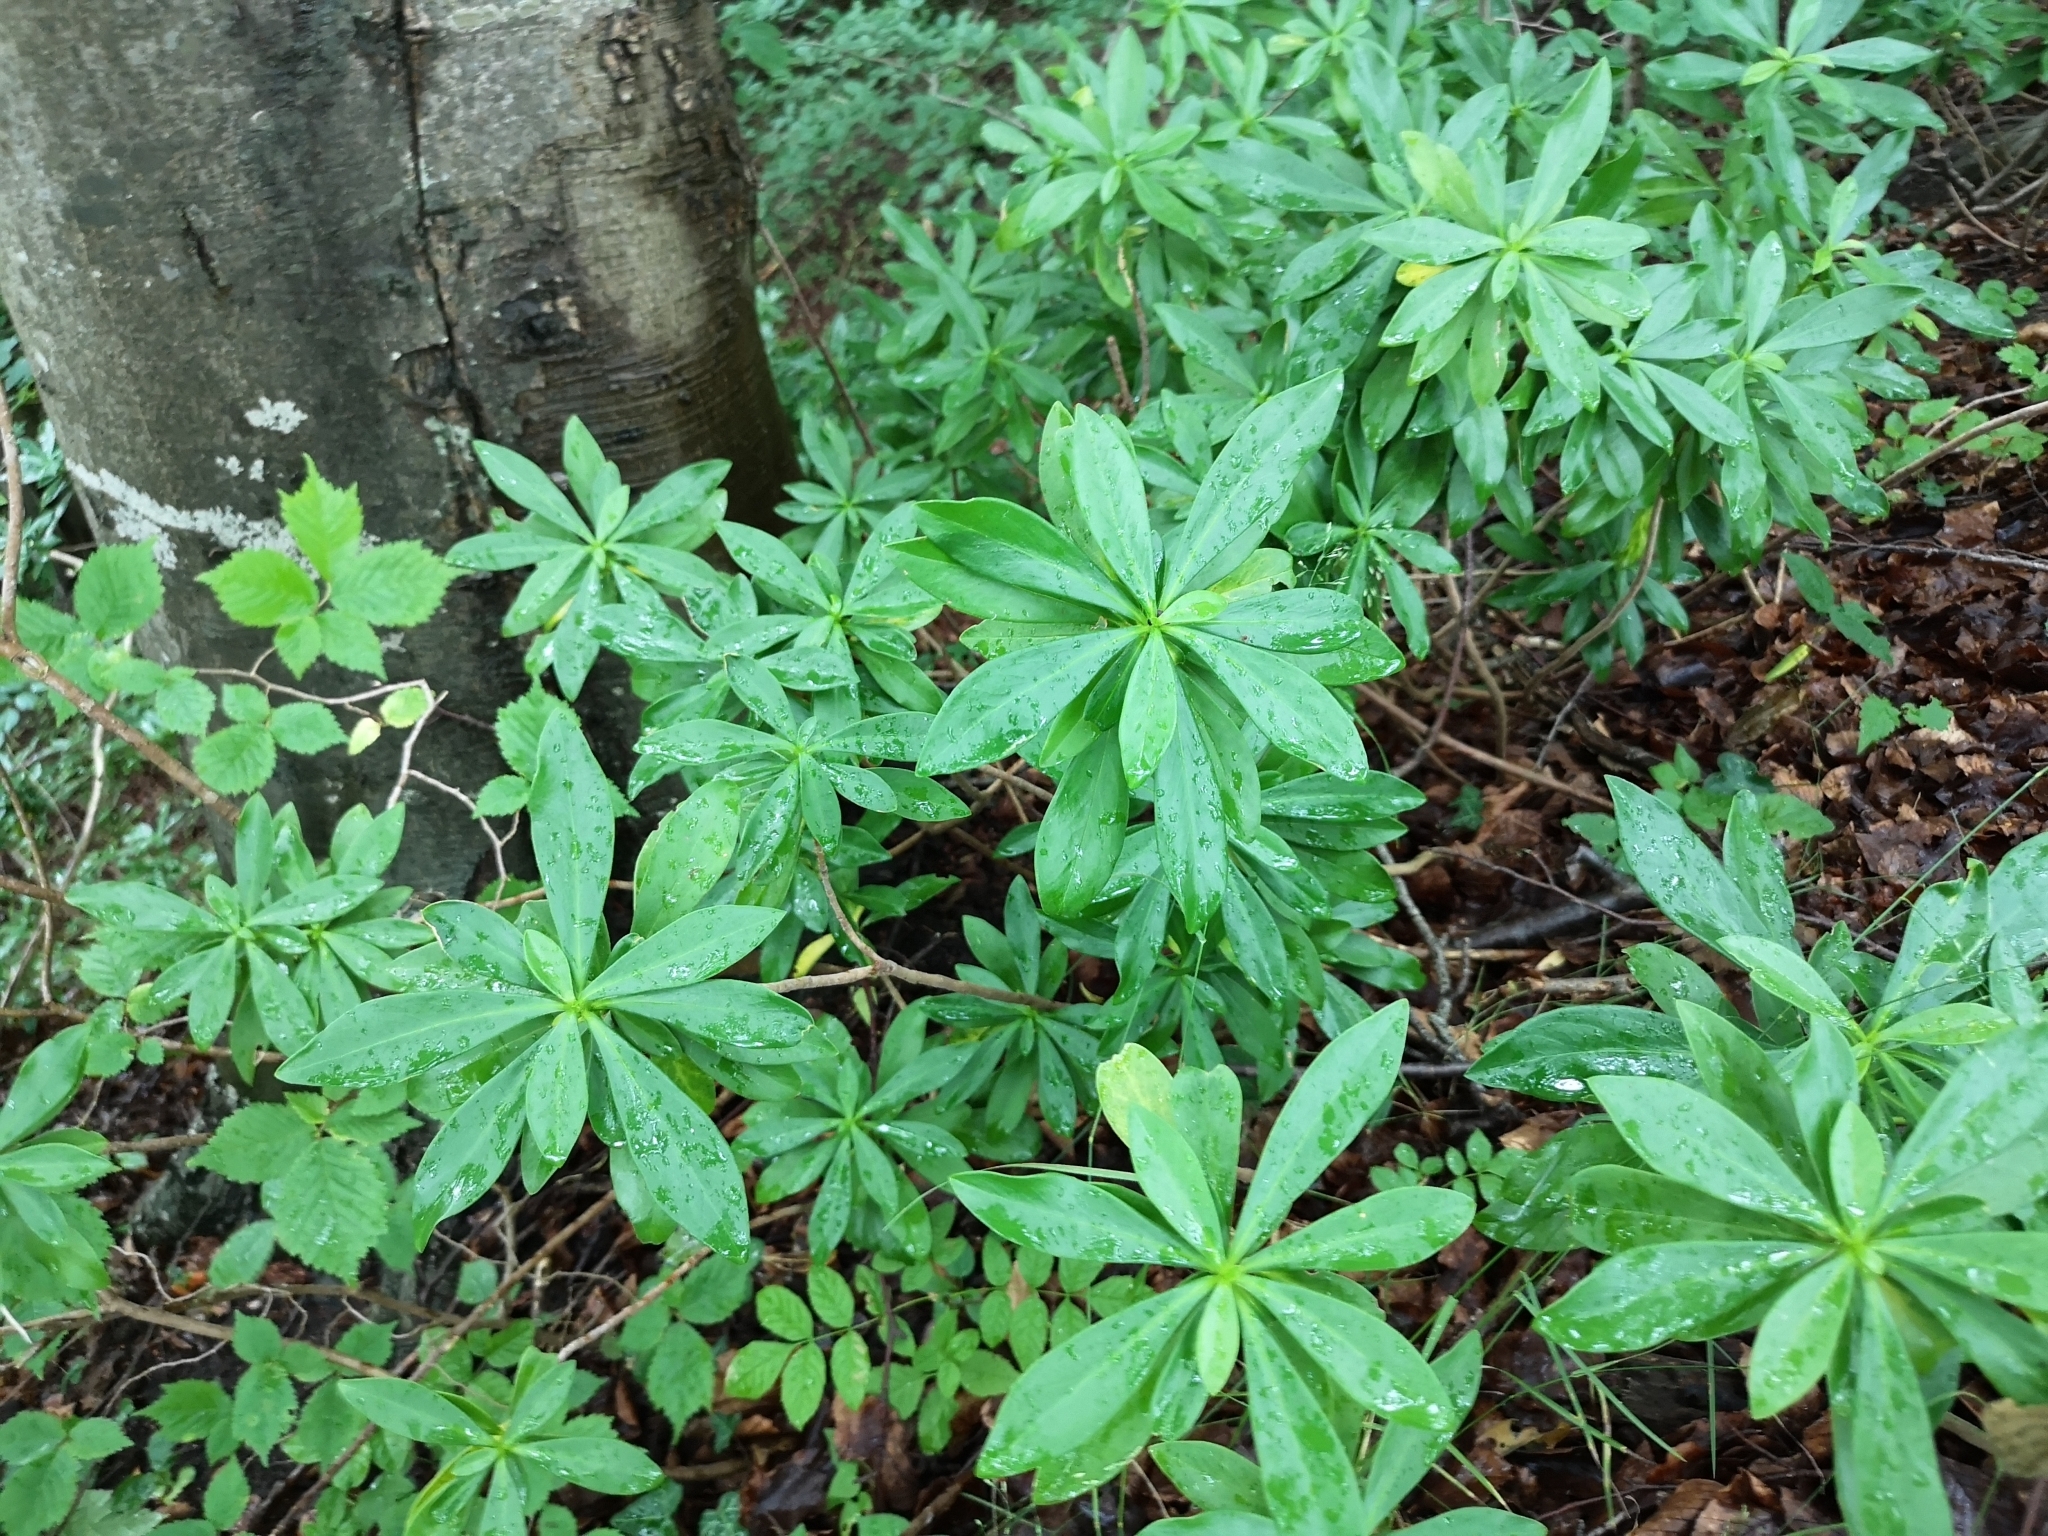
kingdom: Plantae
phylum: Tracheophyta
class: Magnoliopsida
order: Malvales
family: Thymelaeaceae
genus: Daphne
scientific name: Daphne laureola
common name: Spurge-laurel
